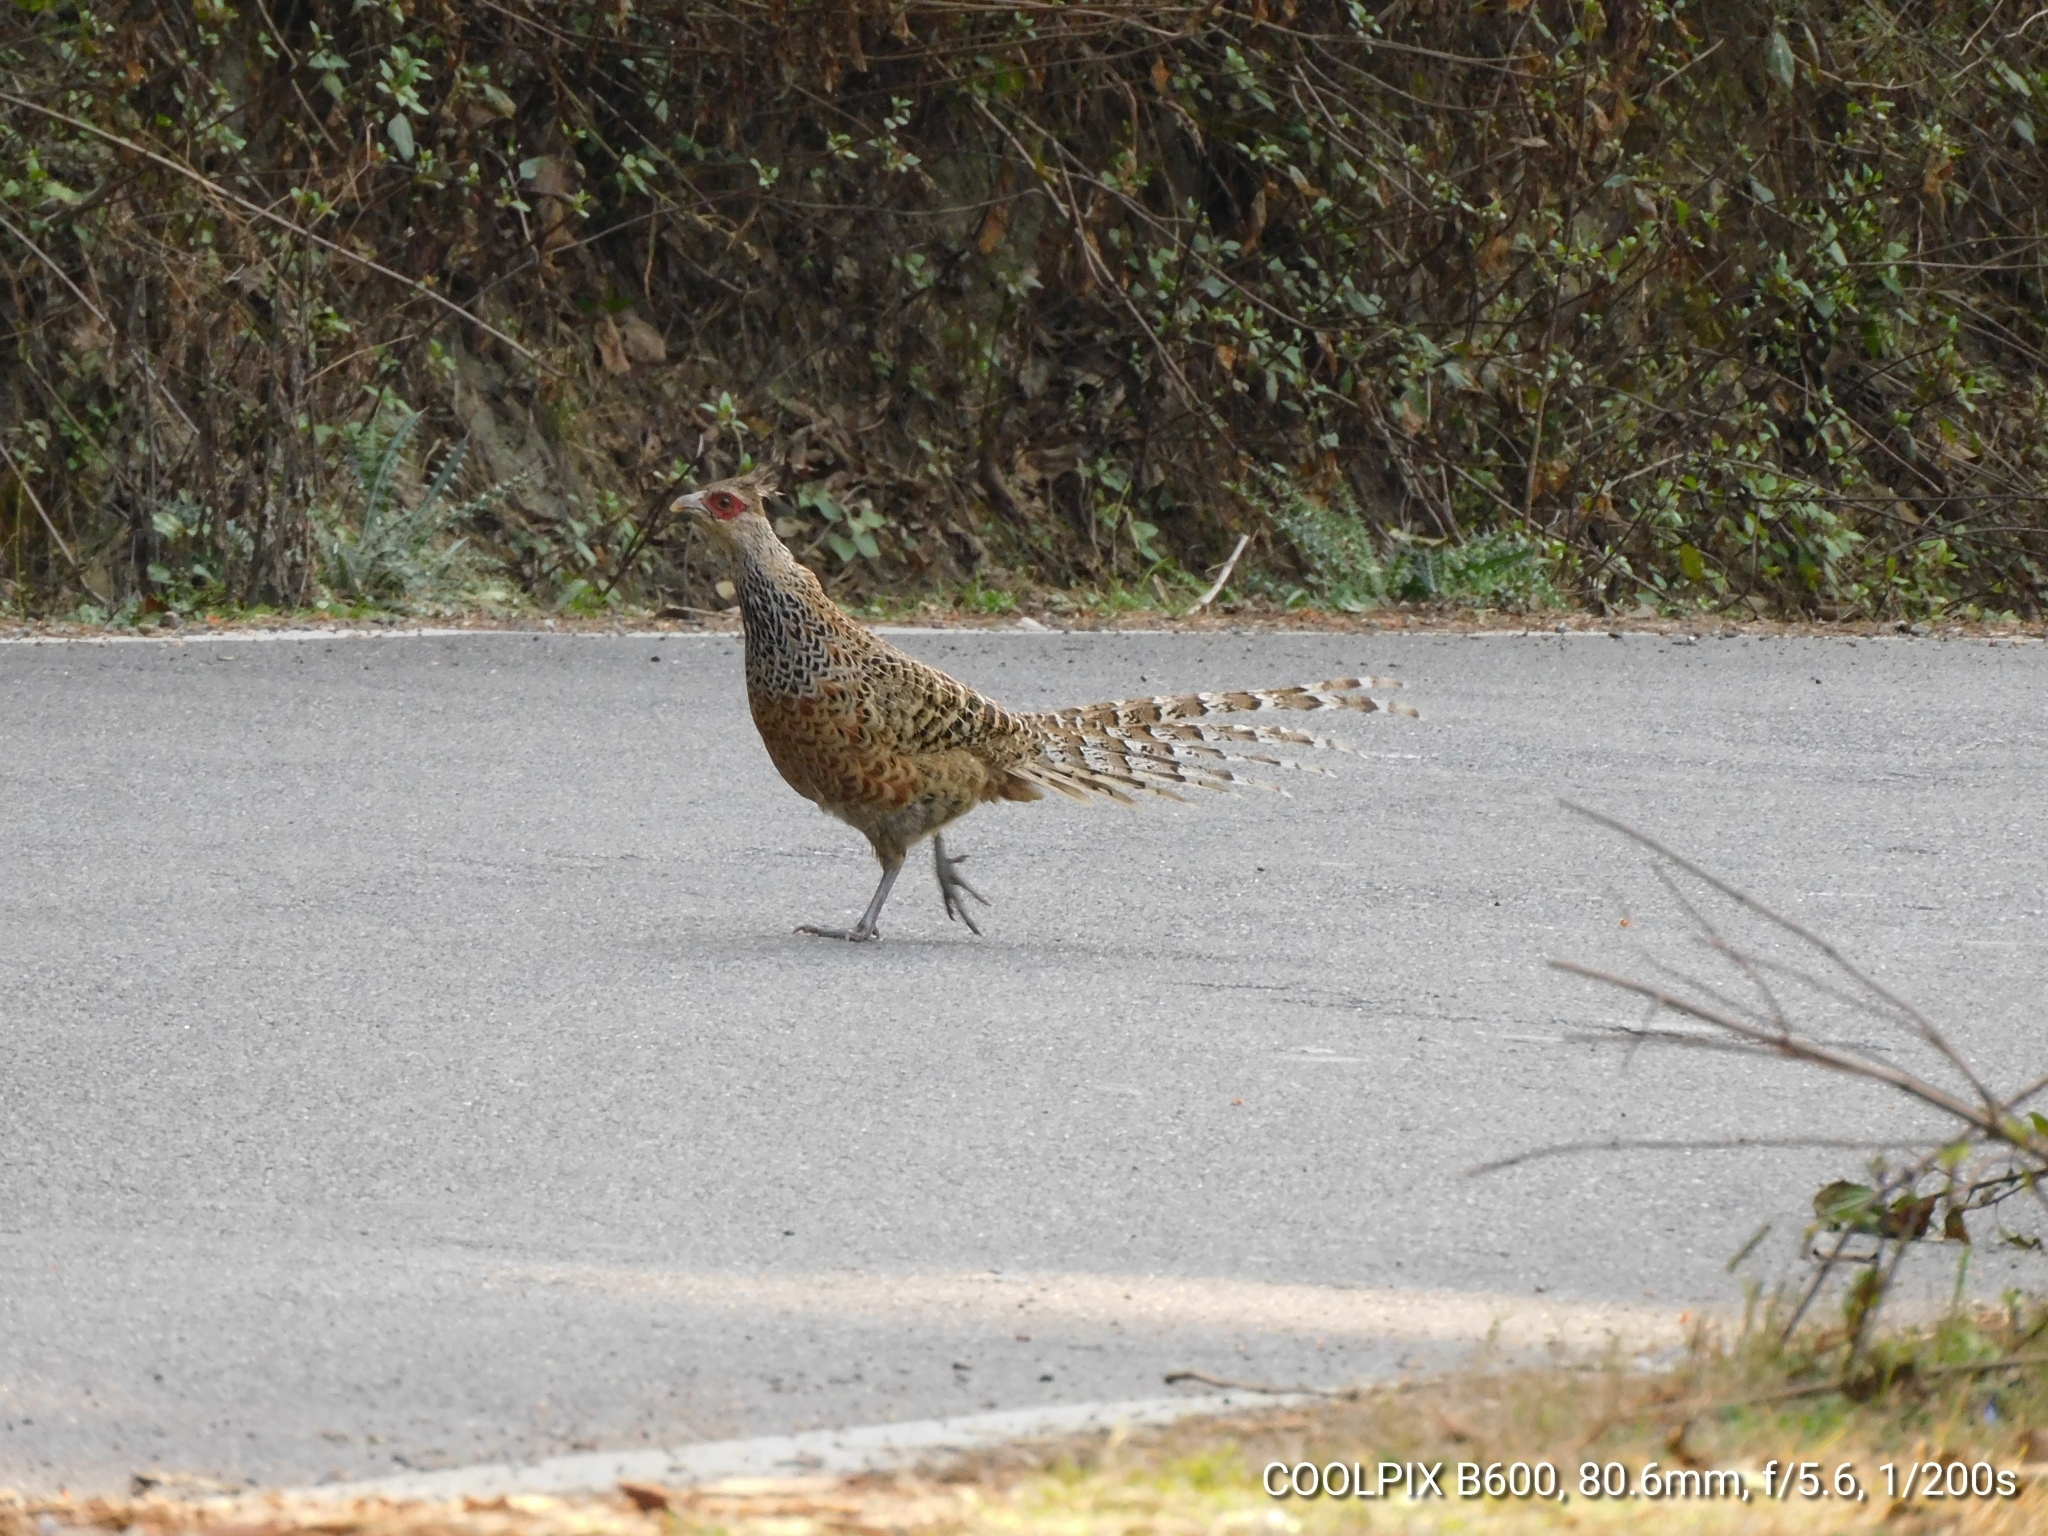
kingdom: Animalia
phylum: Chordata
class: Aves
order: Galliformes
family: Phasianidae
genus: Catreus
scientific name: Catreus wallichii
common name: Cheer pheasant
